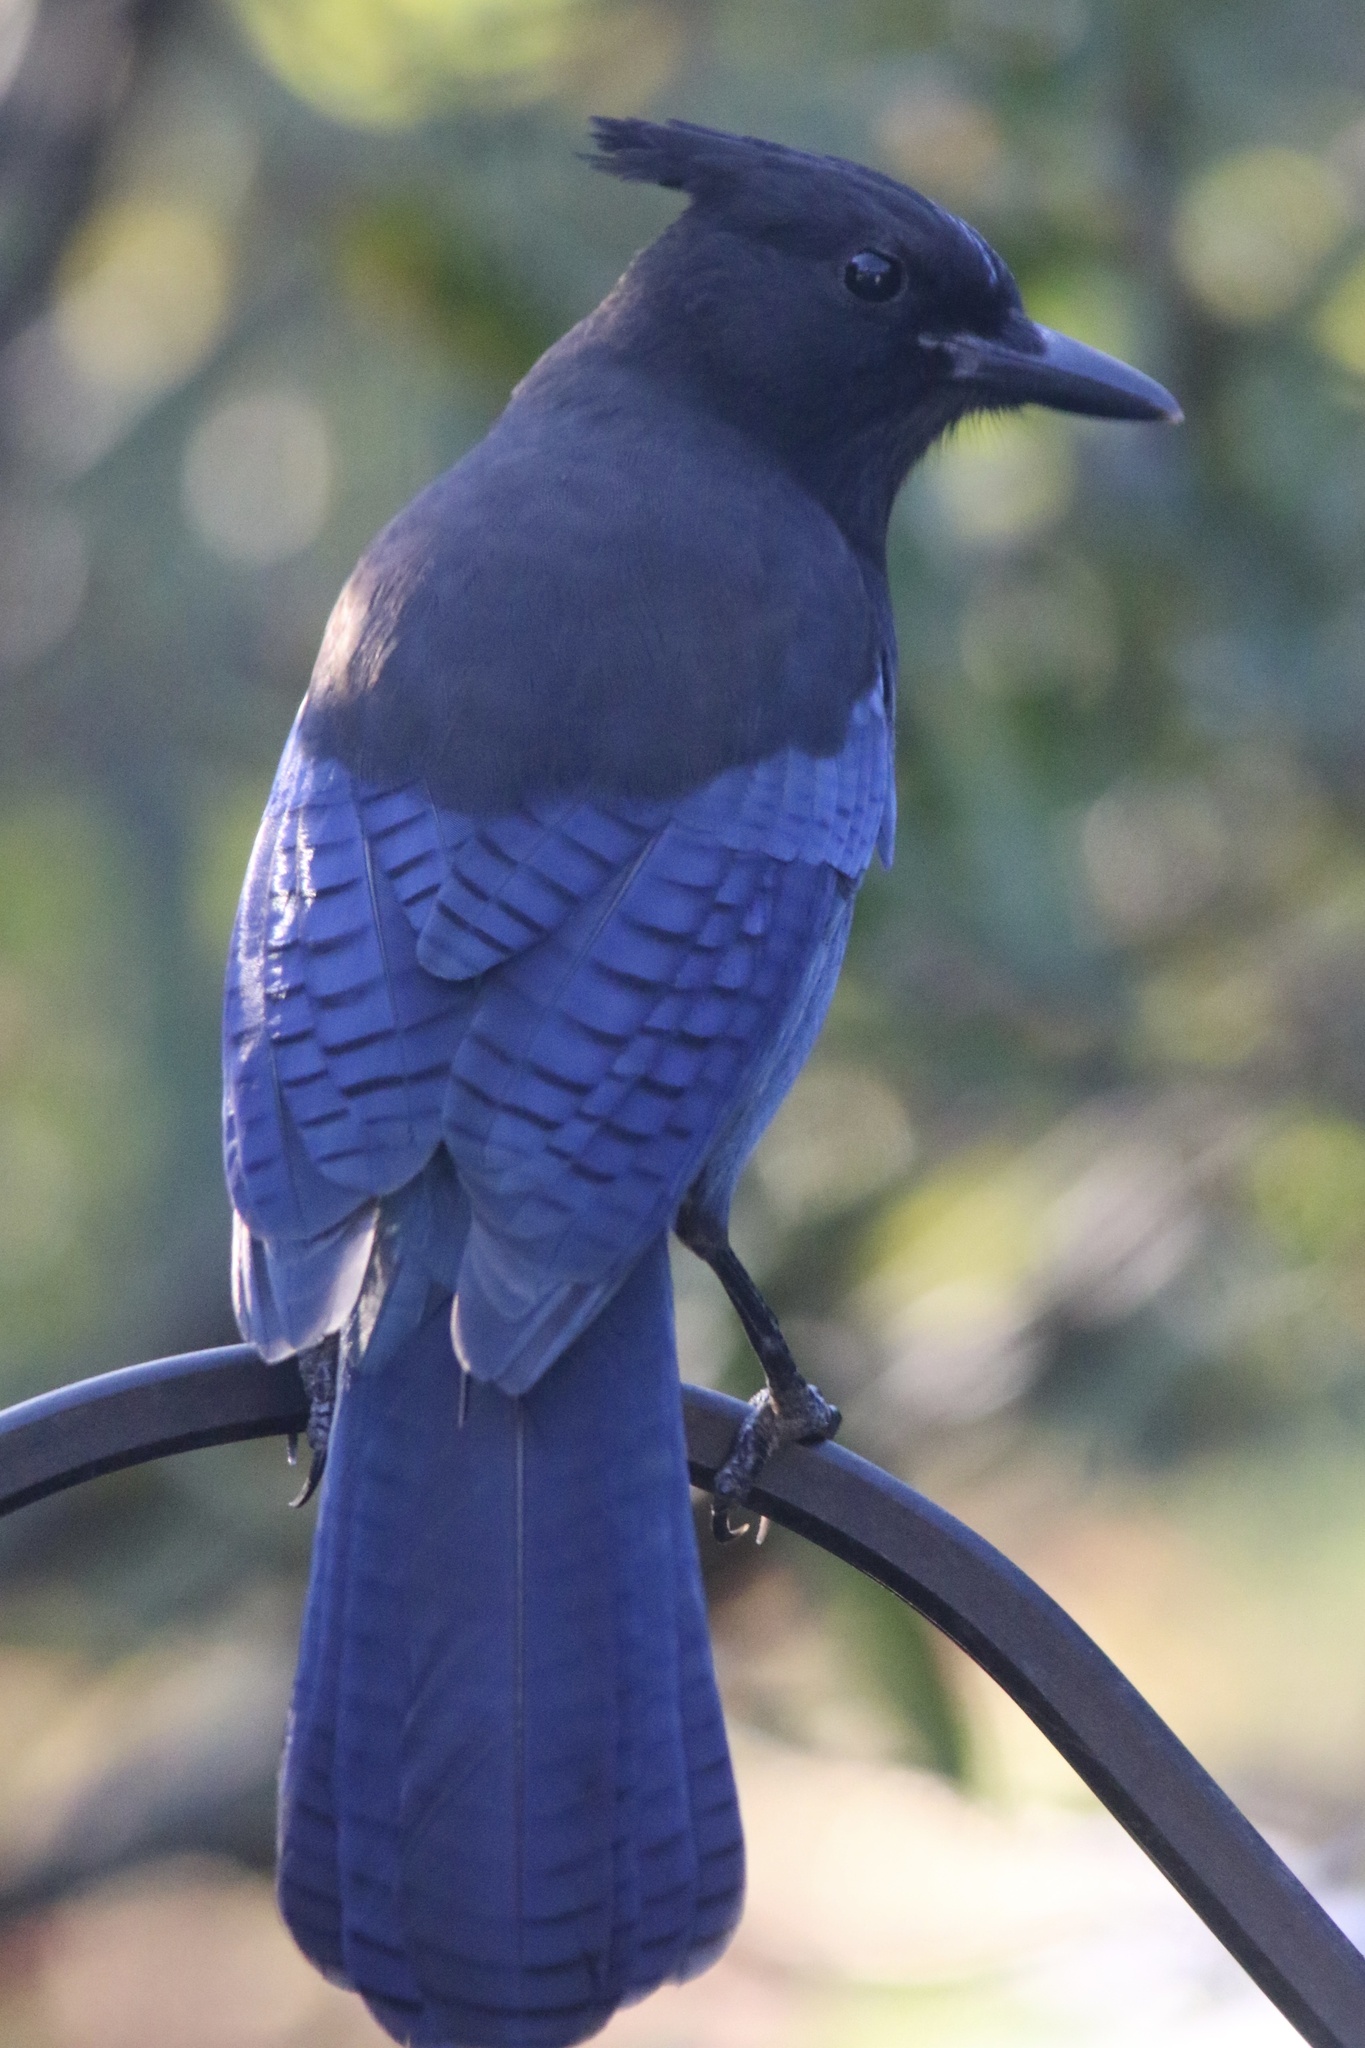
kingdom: Animalia
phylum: Chordata
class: Aves
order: Passeriformes
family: Corvidae
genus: Cyanocitta
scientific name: Cyanocitta stelleri
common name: Steller's jay
